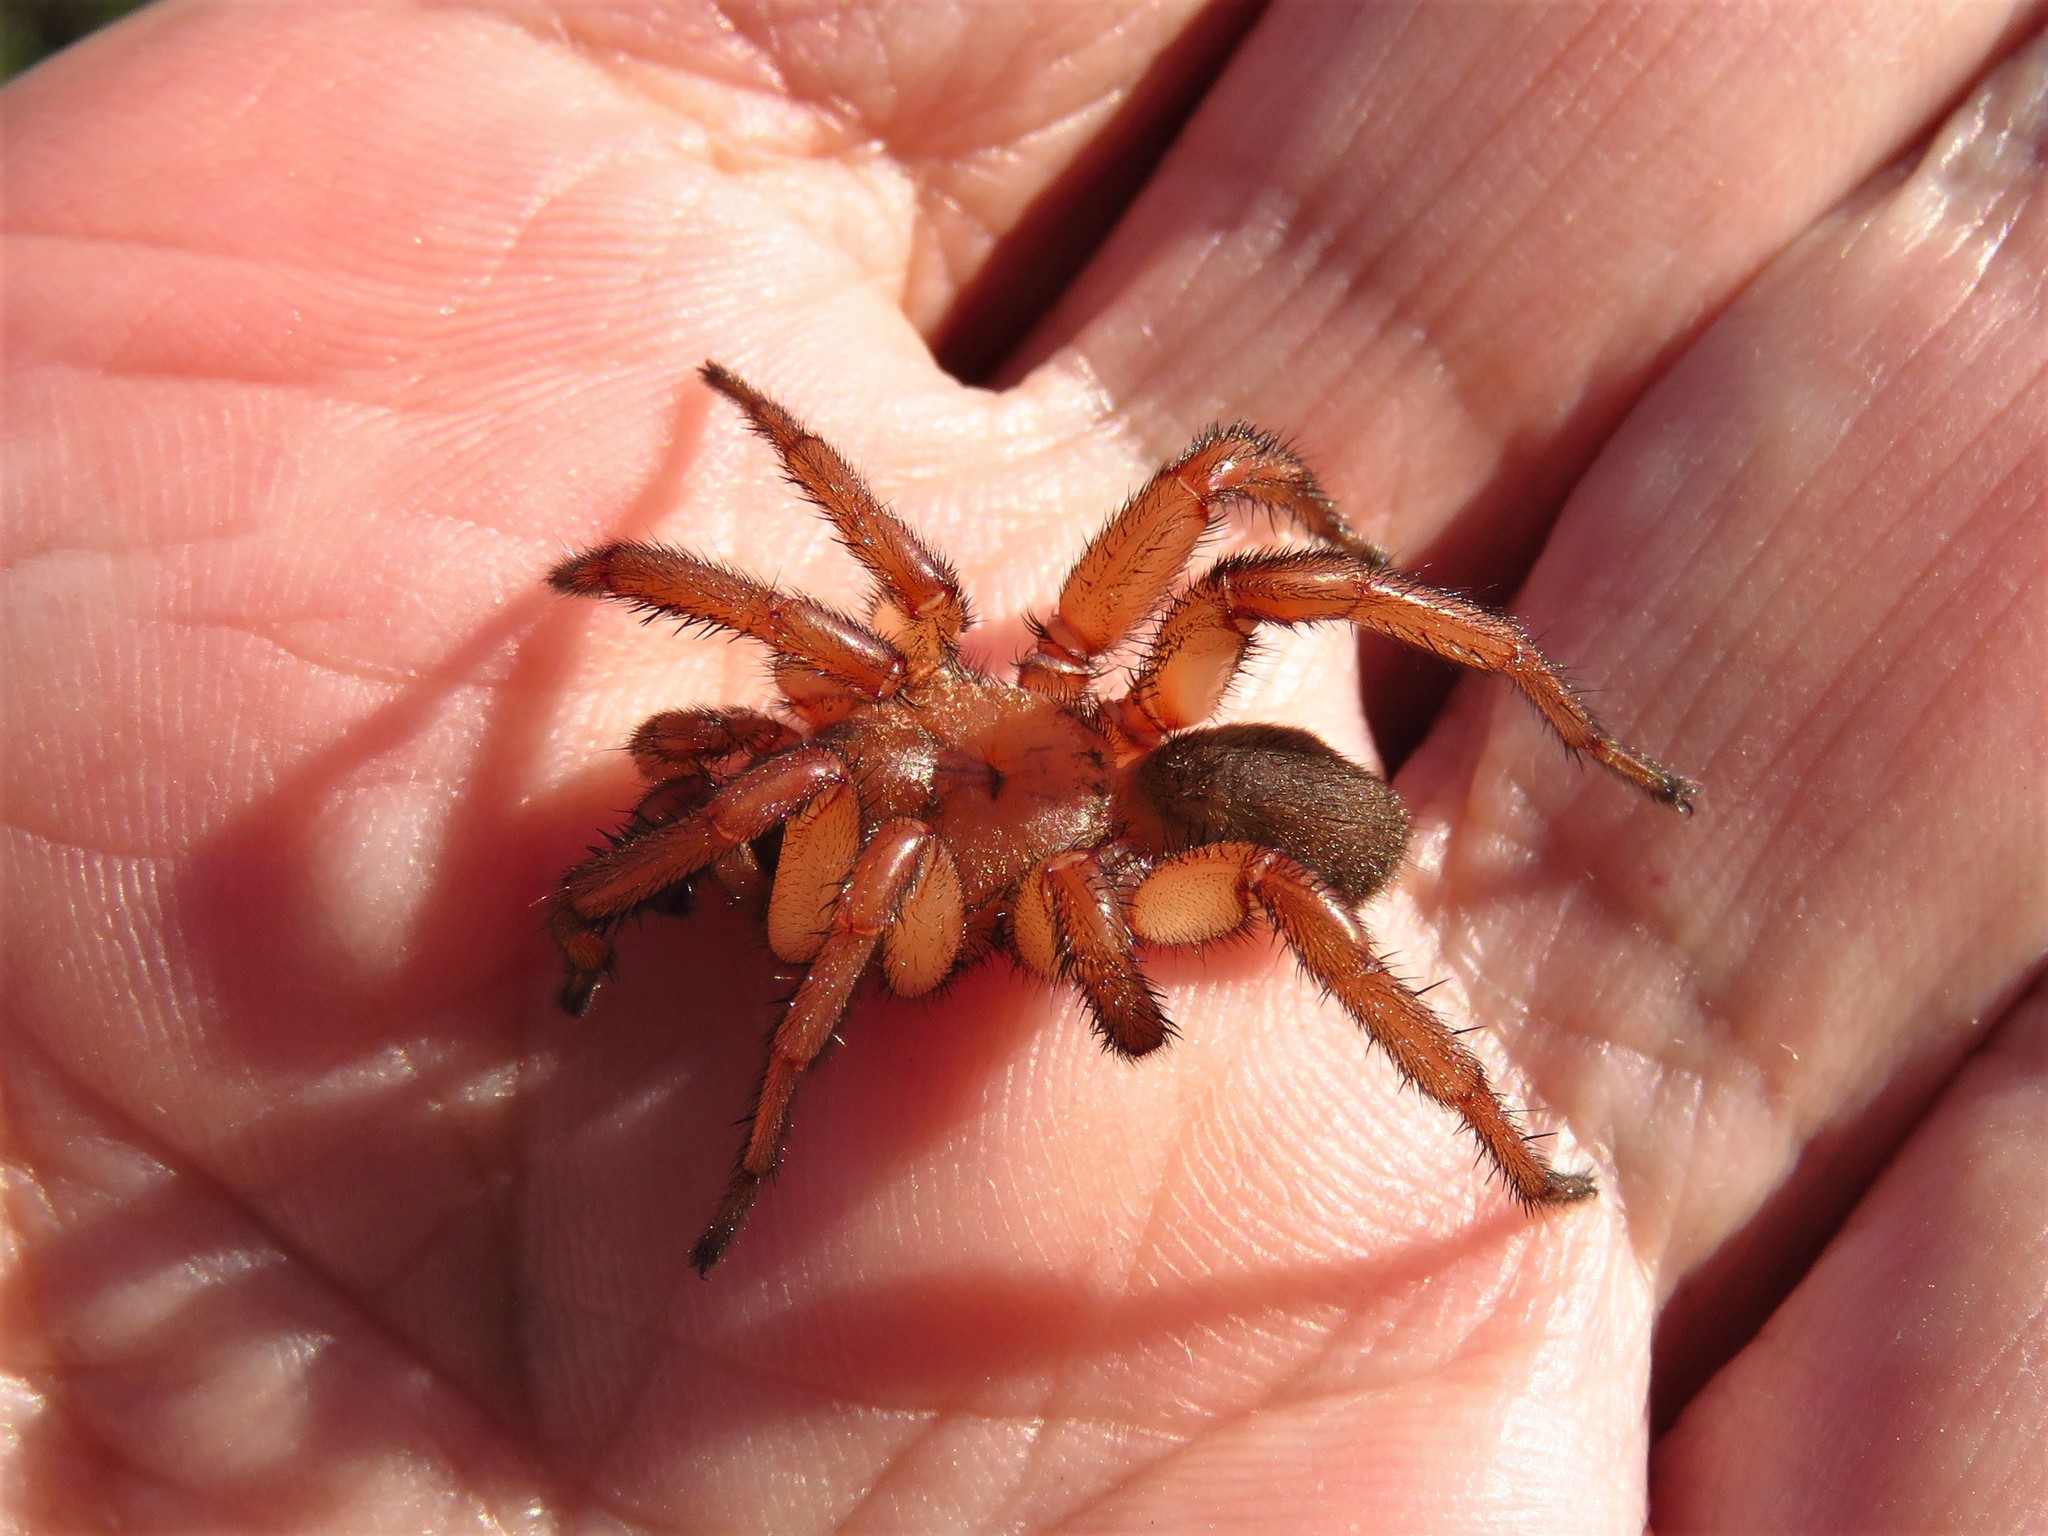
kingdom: Animalia
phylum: Arthropoda
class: Arachnida
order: Araneae
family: Euctenizidae
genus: Myrmekiaphila
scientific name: Myrmekiaphila comstocki
